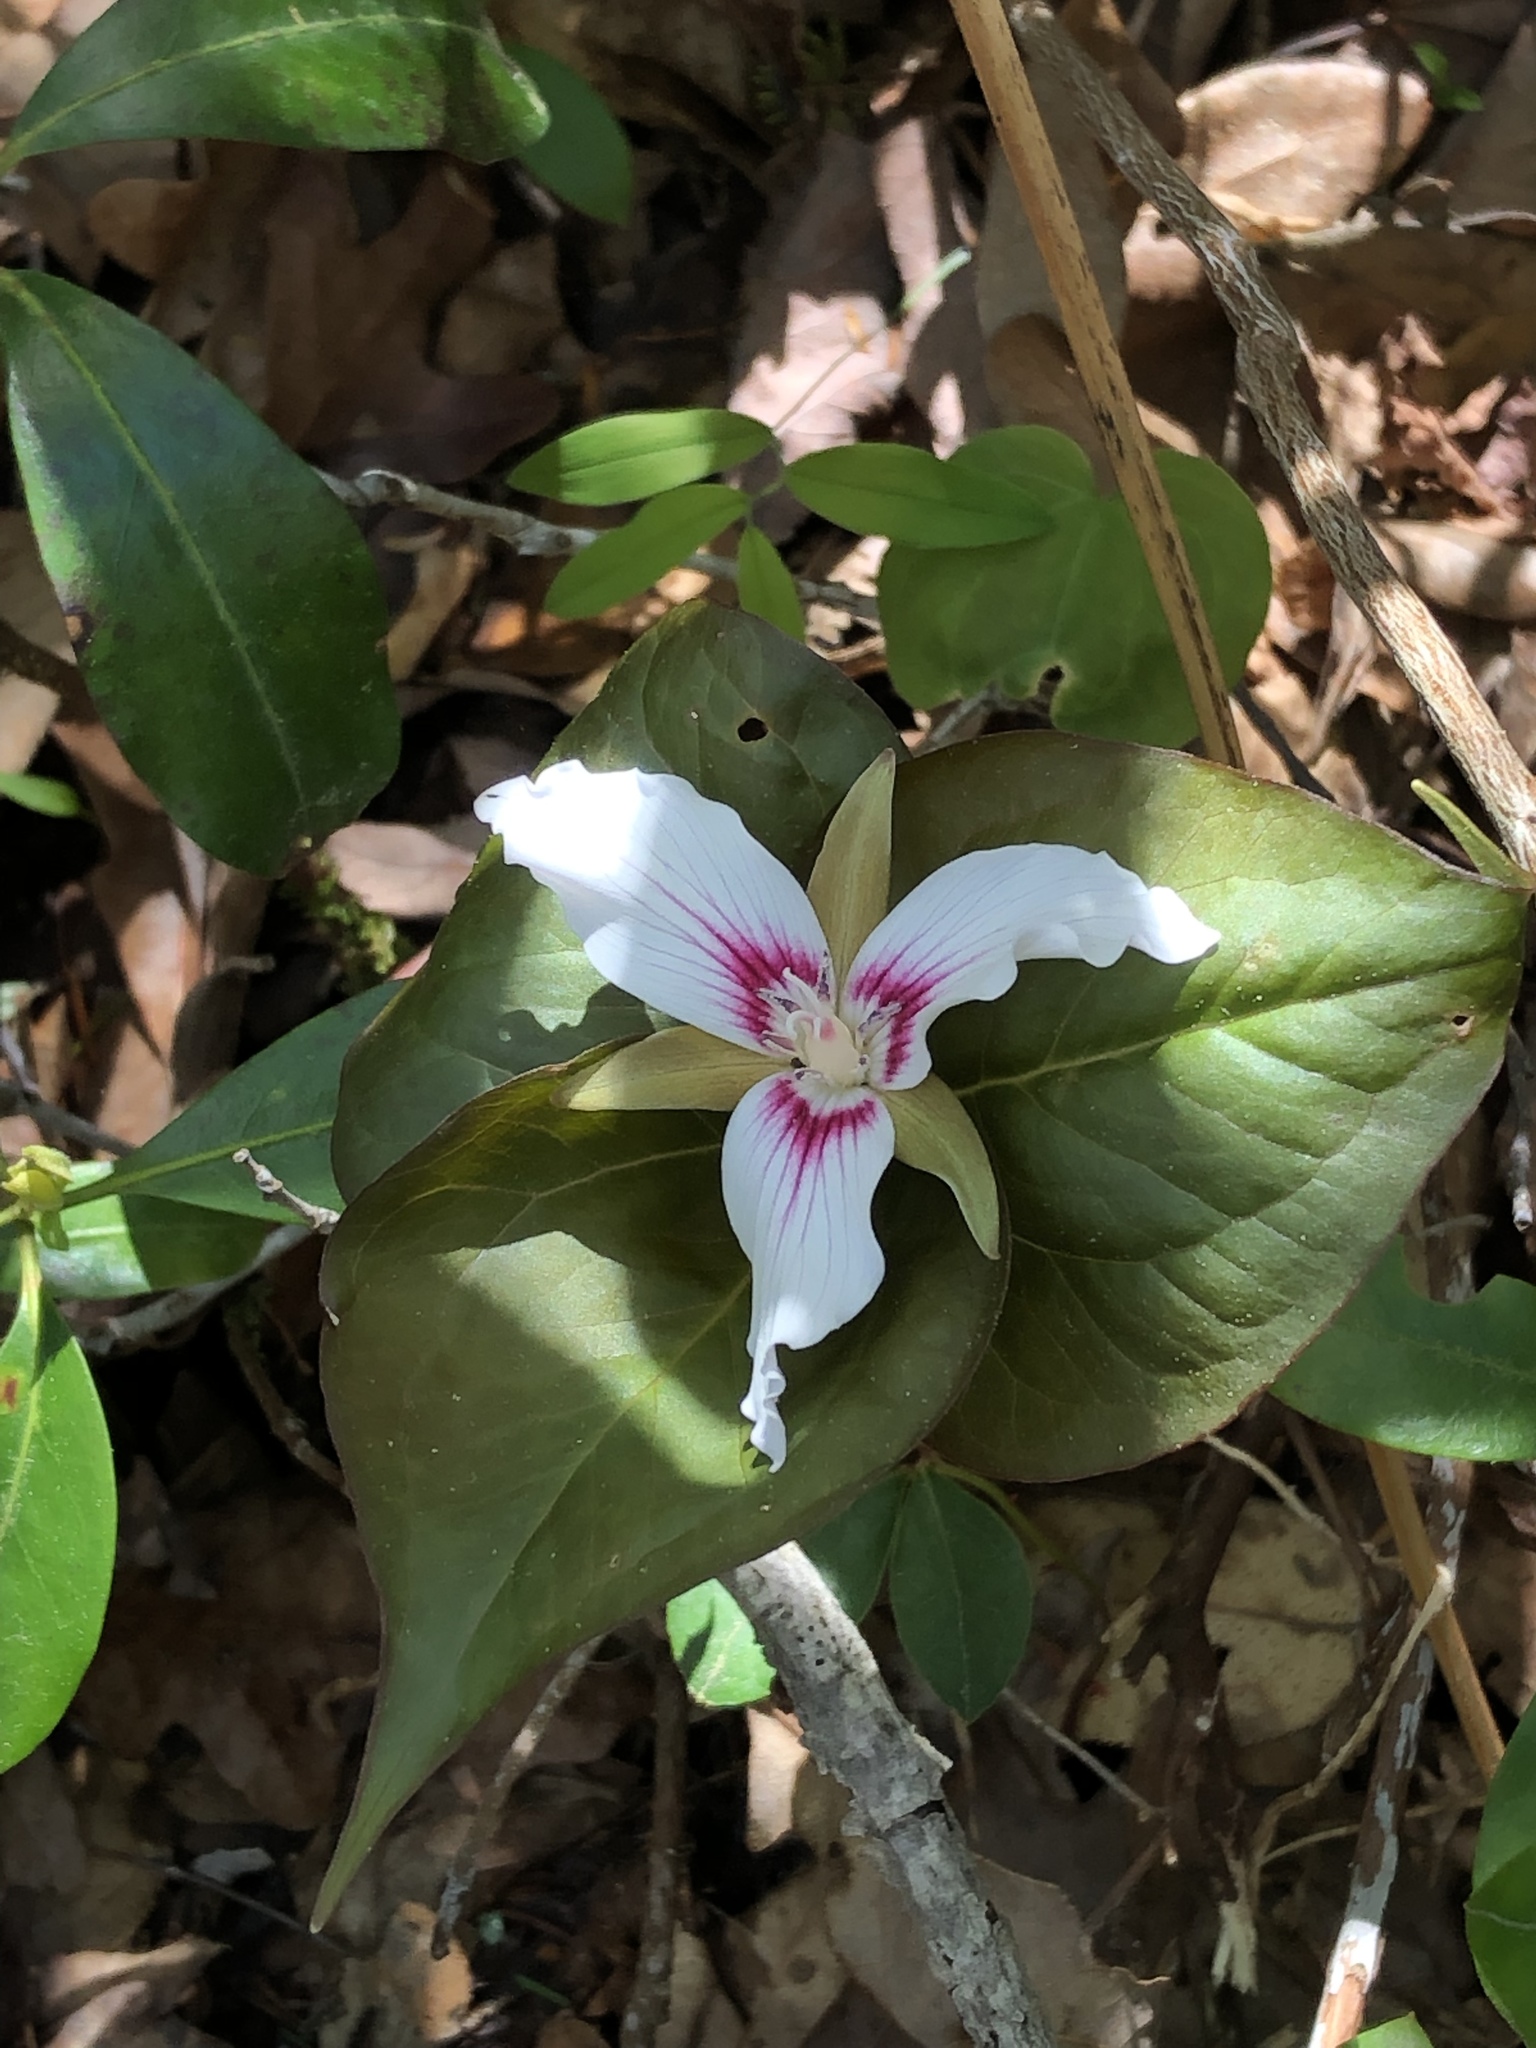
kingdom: Plantae
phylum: Tracheophyta
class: Liliopsida
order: Liliales
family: Melanthiaceae
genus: Trillium
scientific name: Trillium undulatum
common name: Paint trillium
